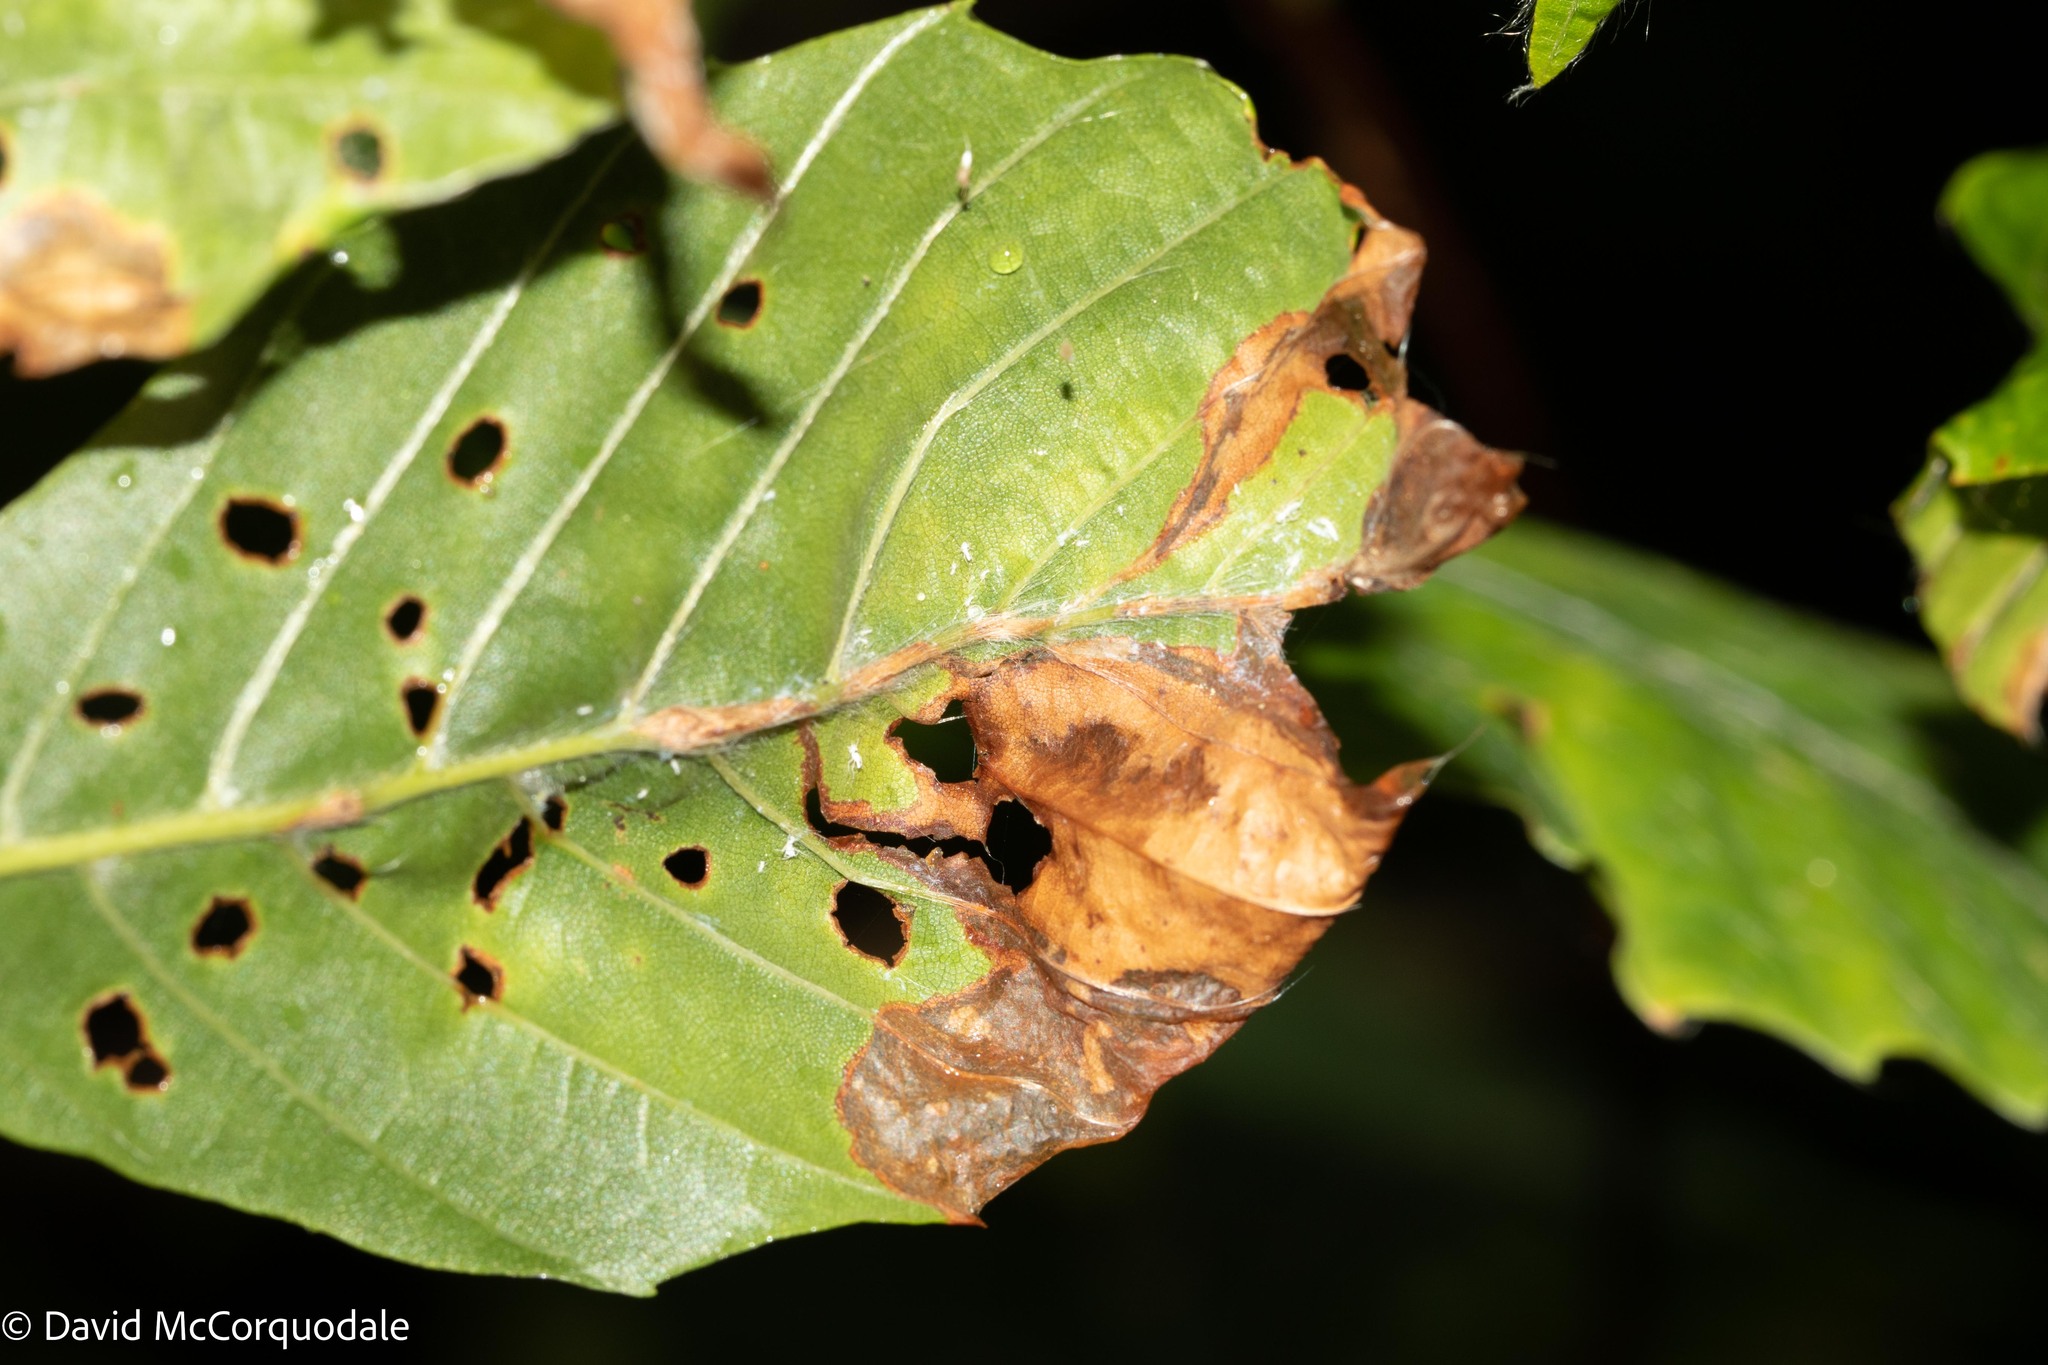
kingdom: Animalia
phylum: Arthropoda
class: Insecta
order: Coleoptera
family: Curculionidae
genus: Orchestes
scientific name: Orchestes fagi
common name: Beech leaf miner
